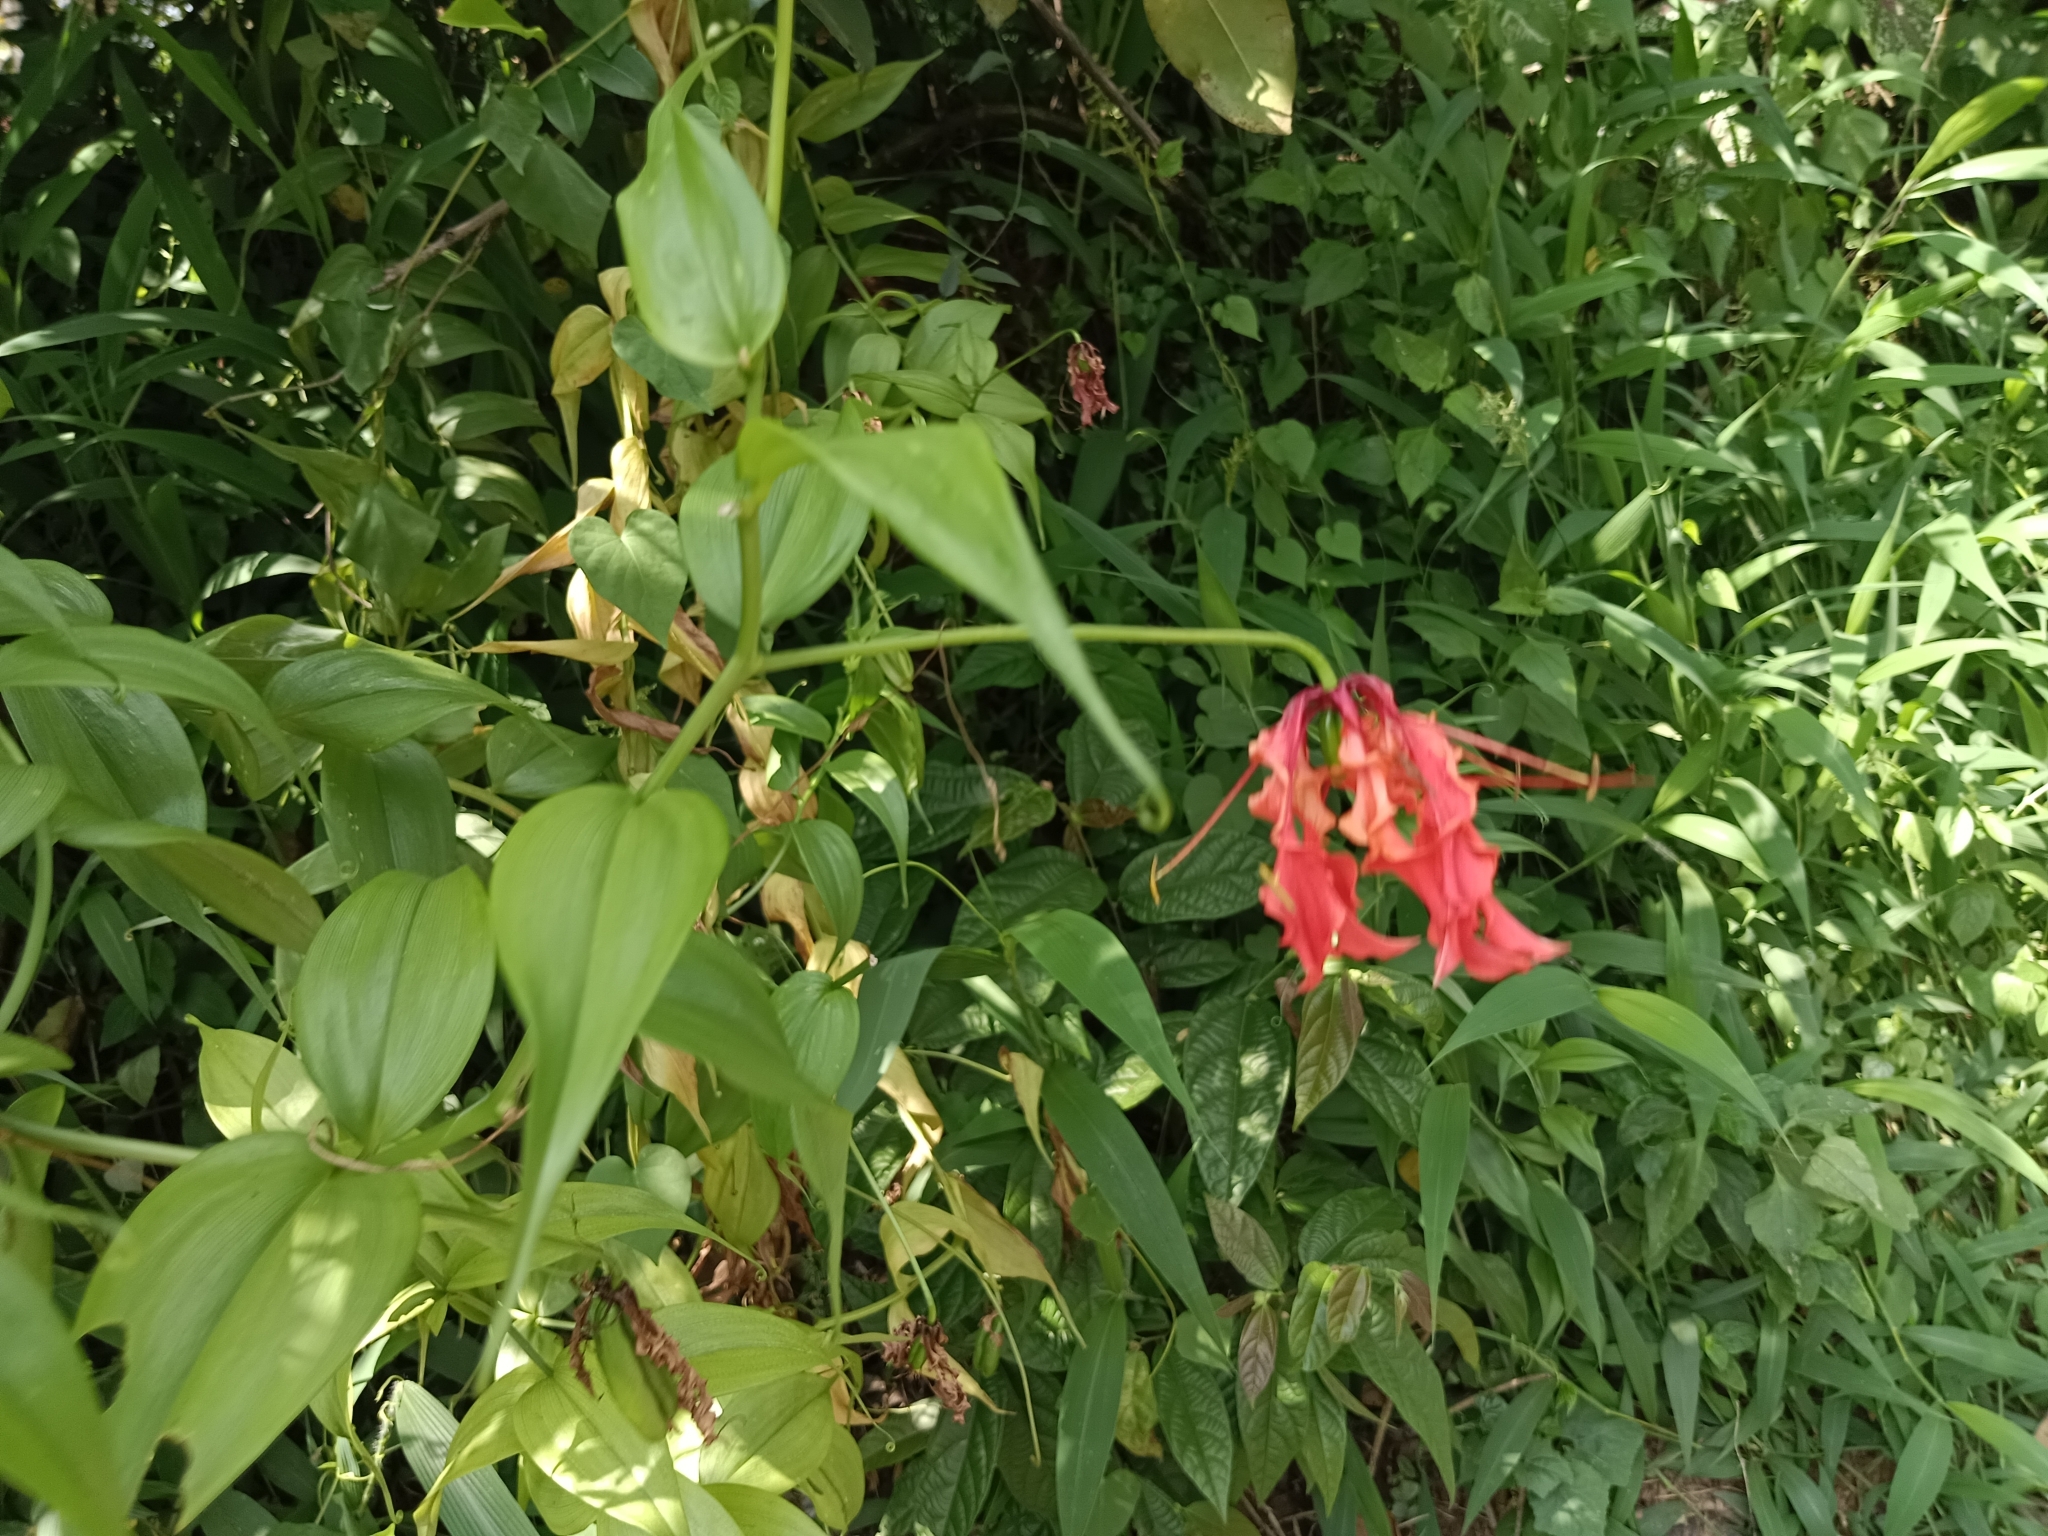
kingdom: Plantae
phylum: Tracheophyta
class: Liliopsida
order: Liliales
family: Colchicaceae
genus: Gloriosa
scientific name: Gloriosa superba
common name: Flame lily
